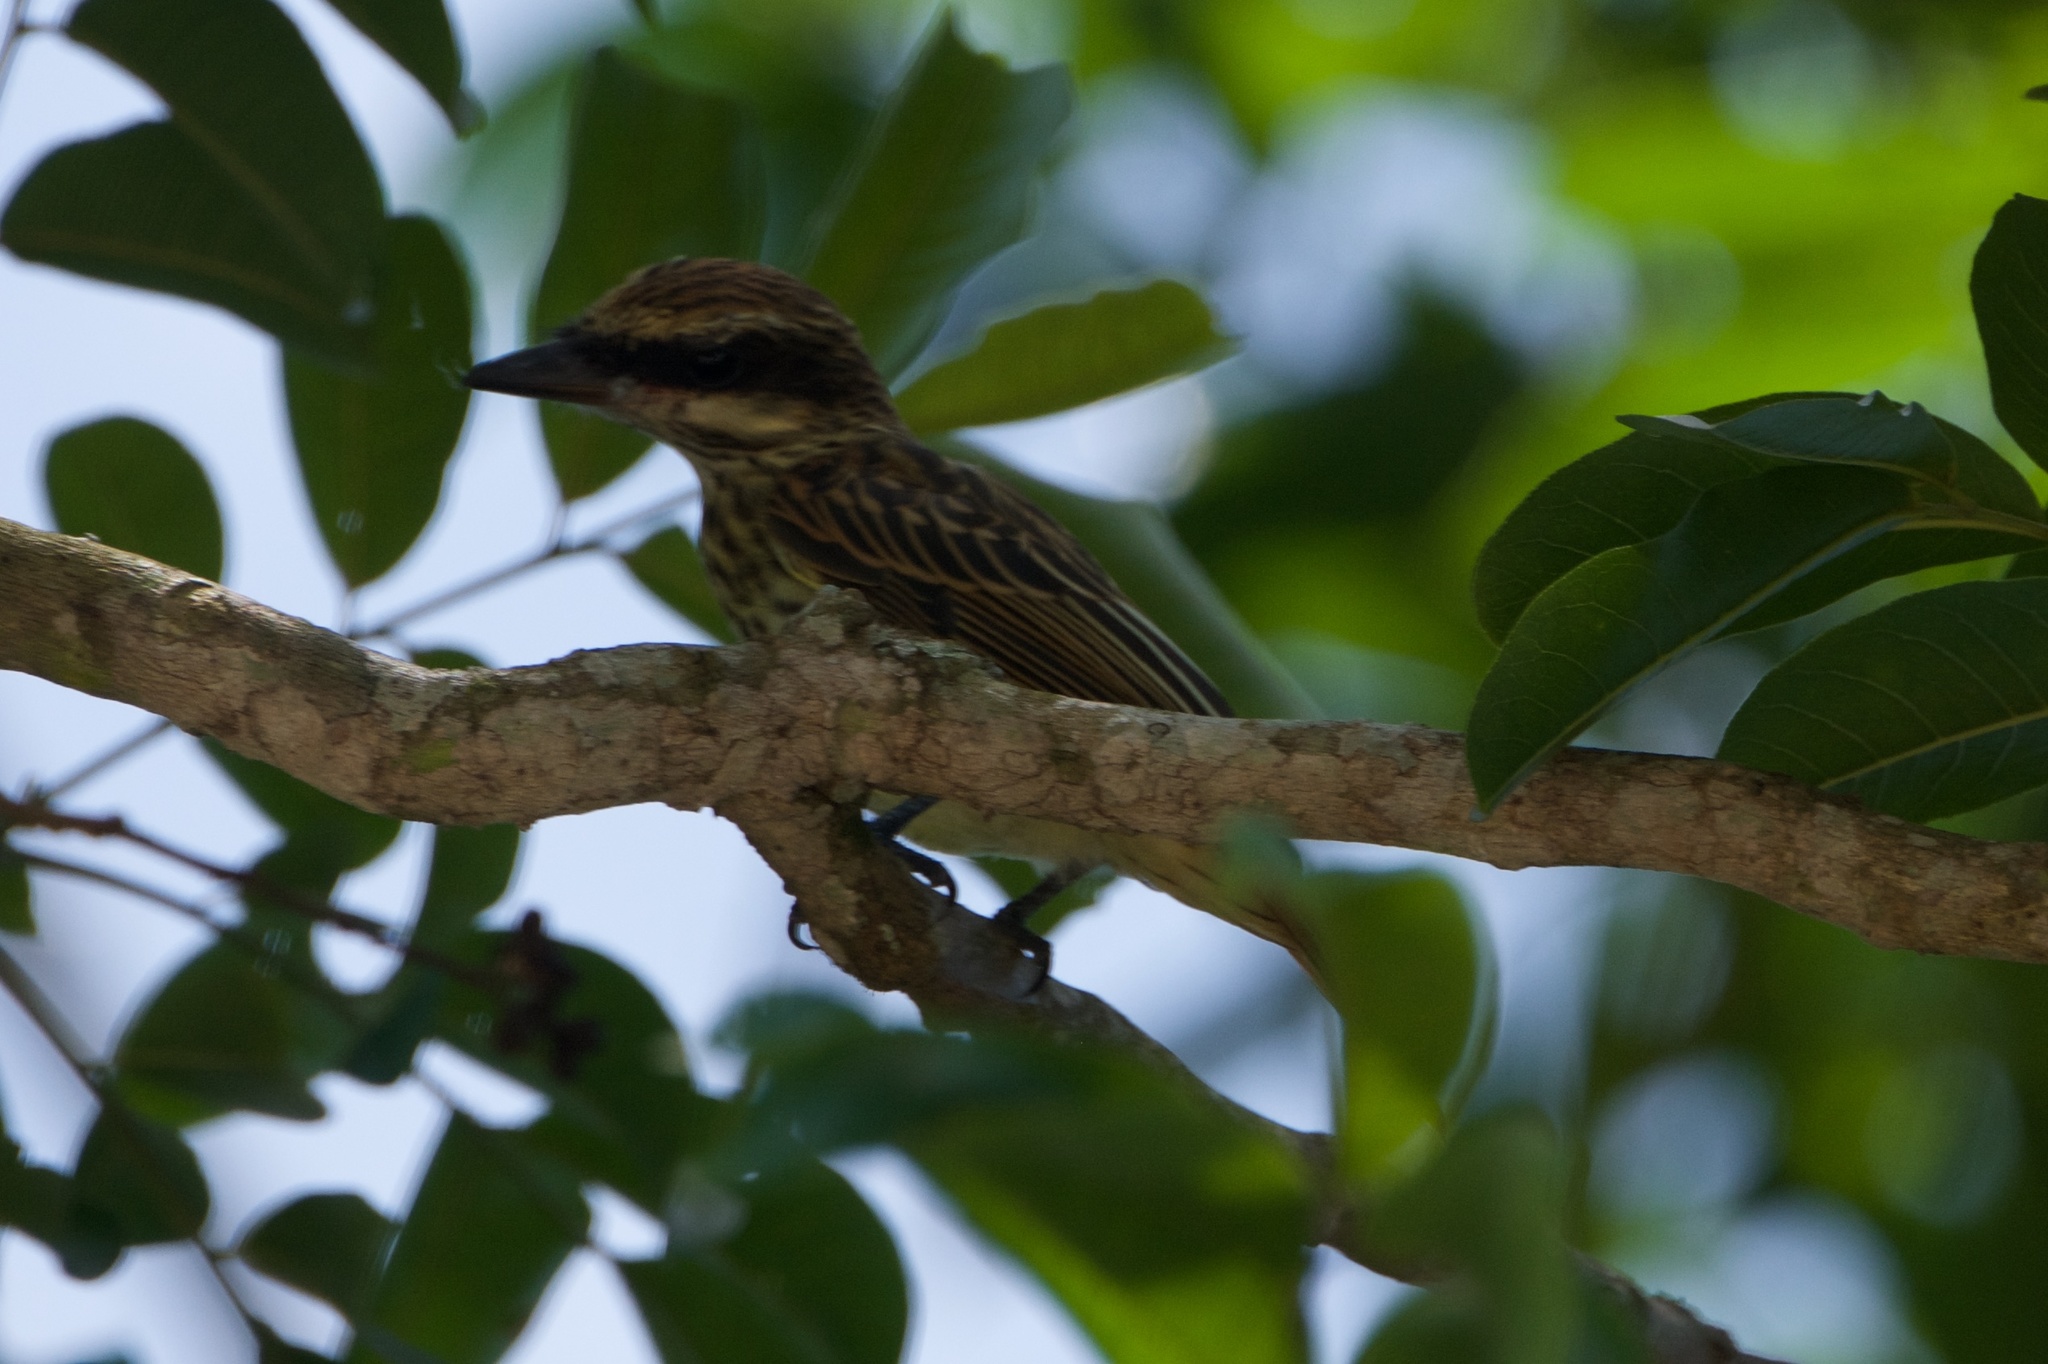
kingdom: Animalia
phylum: Chordata
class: Aves
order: Passeriformes
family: Tyrannidae
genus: Myiodynastes
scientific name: Myiodynastes maculatus
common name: Streaked flycatcher
